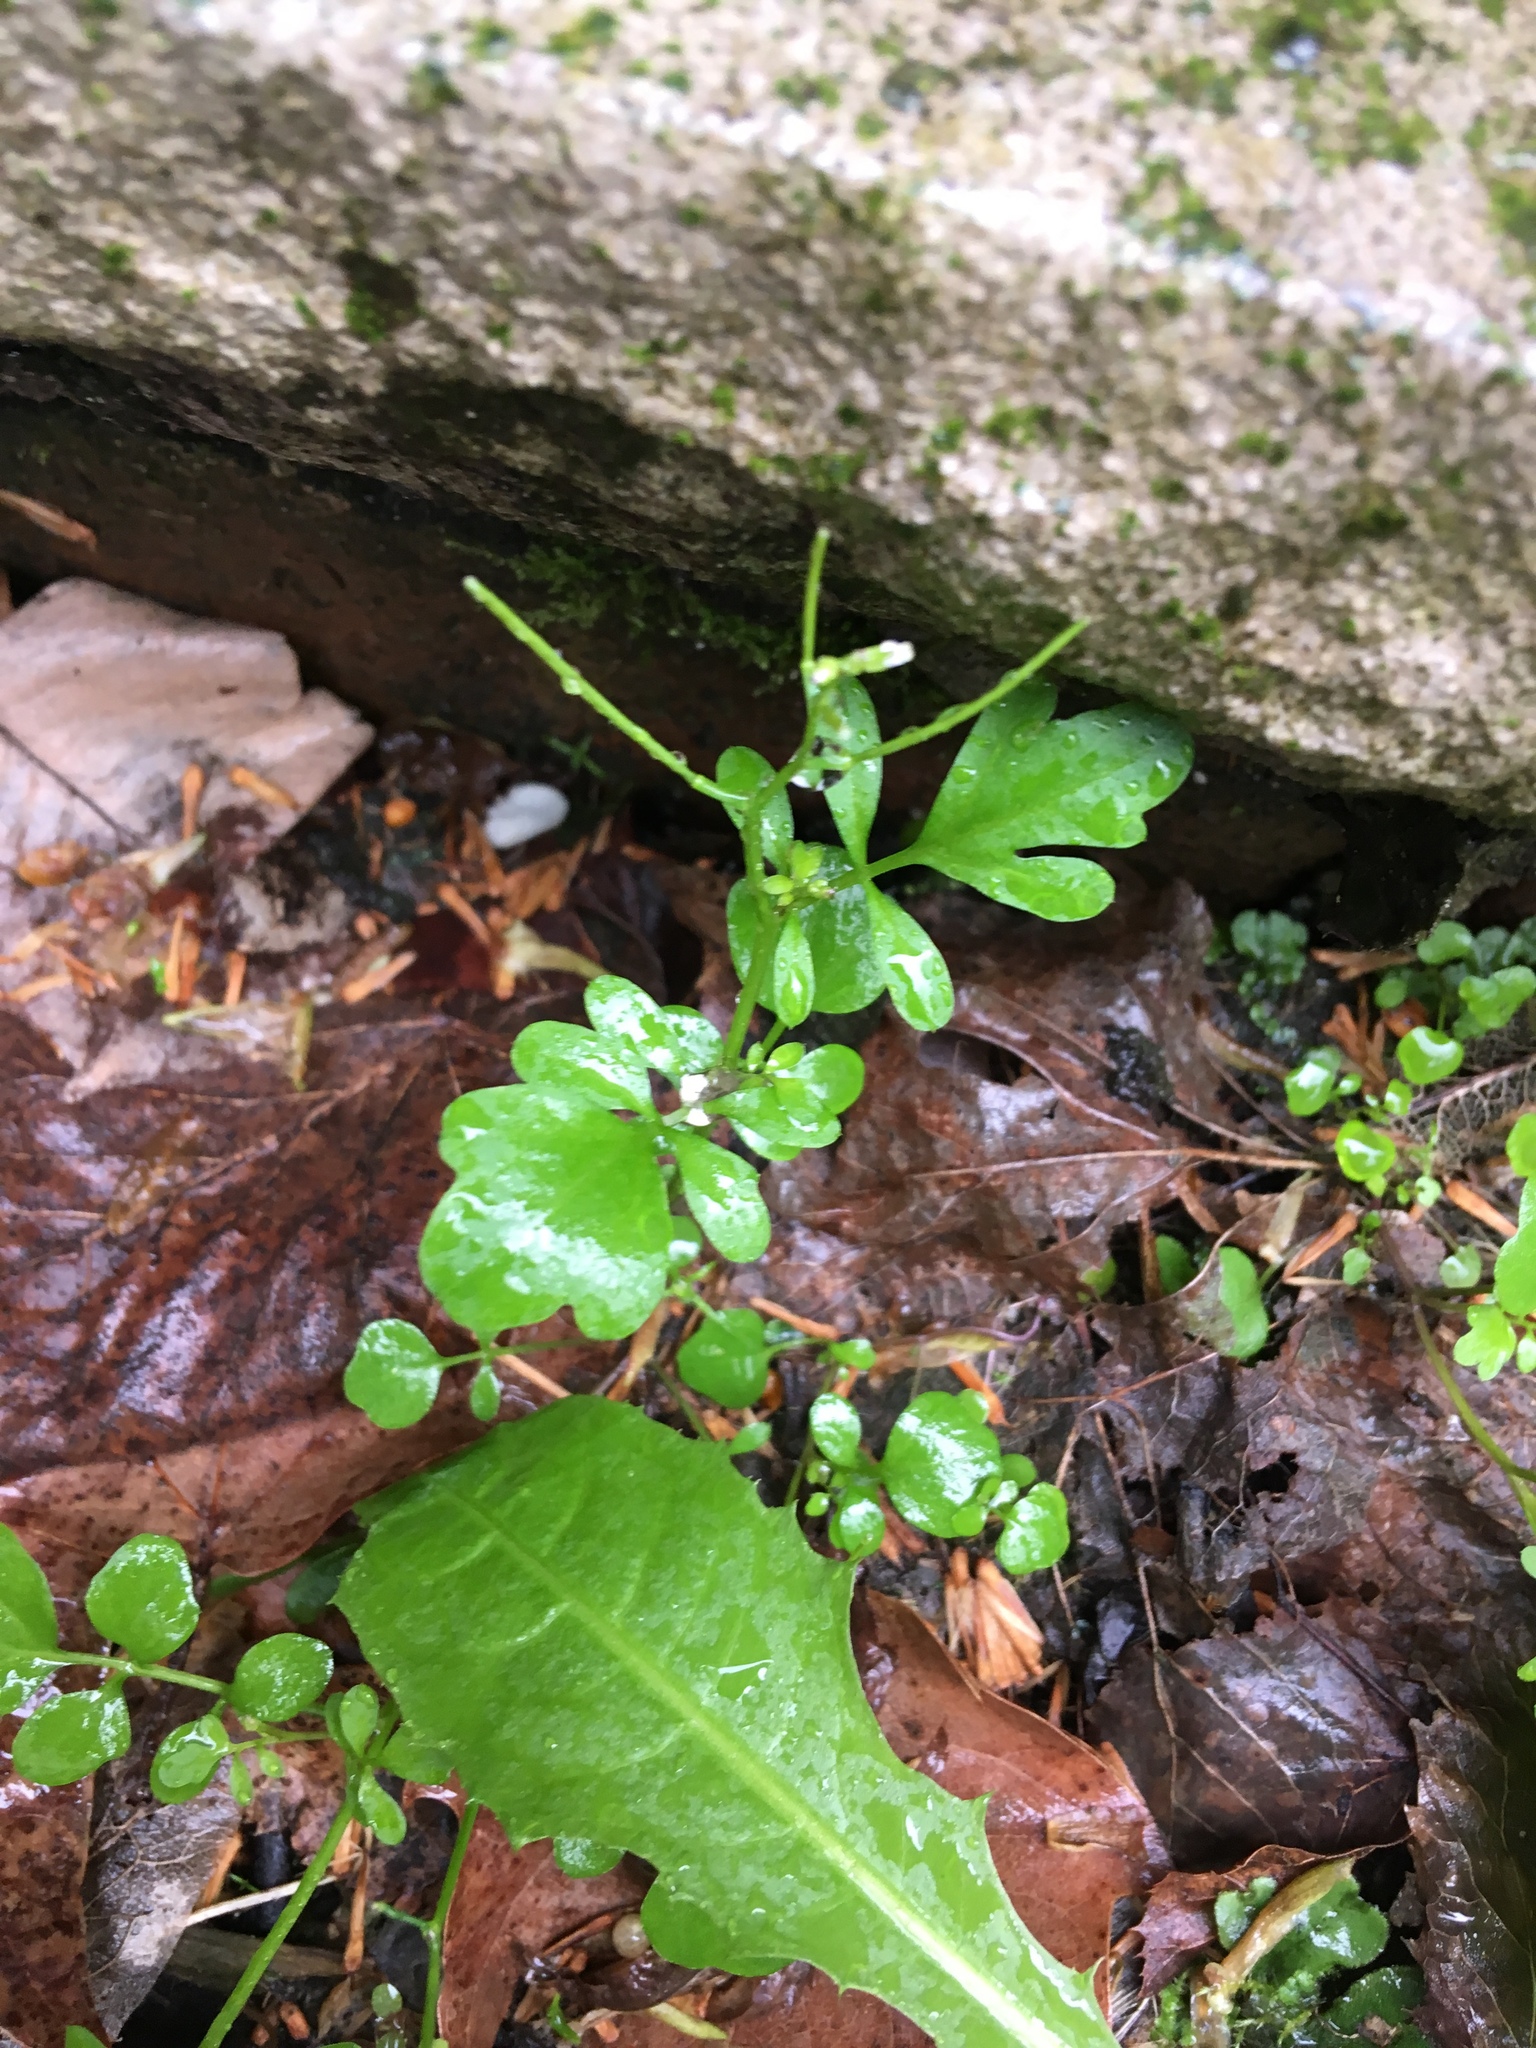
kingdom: Plantae
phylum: Tracheophyta
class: Magnoliopsida
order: Brassicales
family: Brassicaceae
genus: Cardamine
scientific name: Cardamine occulta
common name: Asian wavy bittercress
